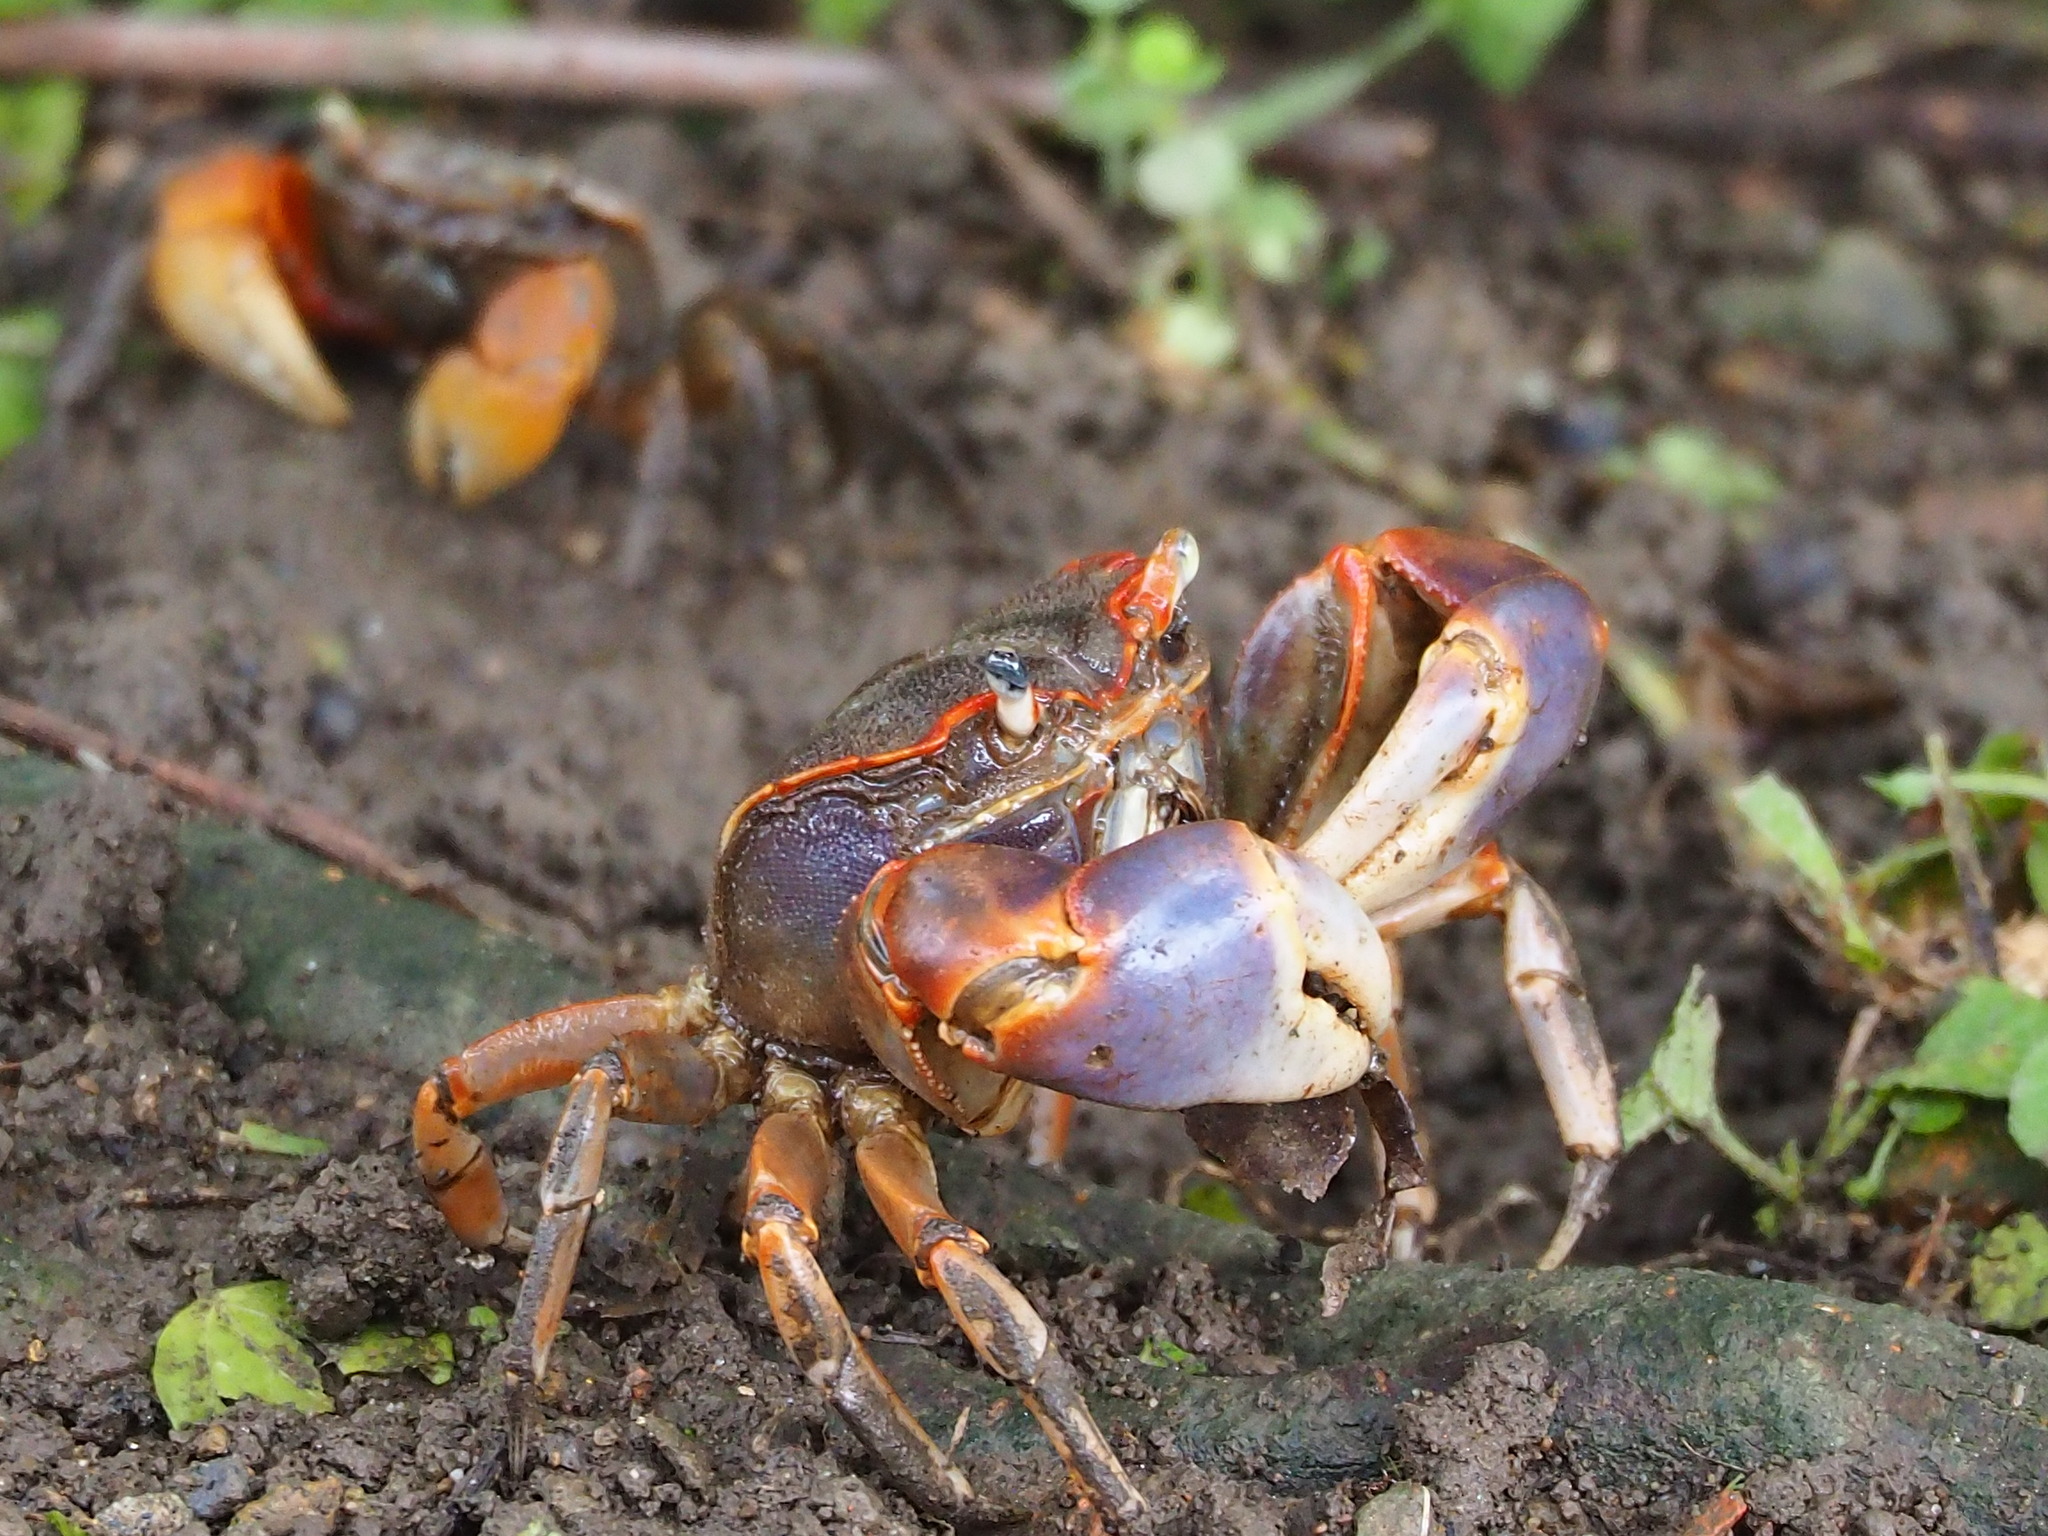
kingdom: Animalia
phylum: Arthropoda
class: Malacostraca
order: Decapoda
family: Varunidae
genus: Chasmagnathus
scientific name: Chasmagnathus convexus
